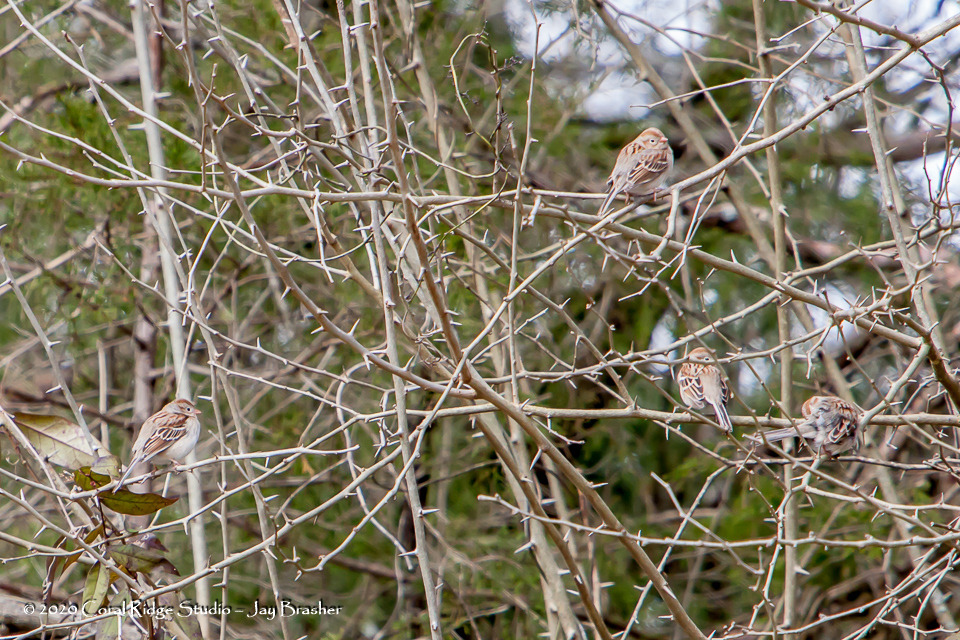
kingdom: Animalia
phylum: Chordata
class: Aves
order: Passeriformes
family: Passerellidae
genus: Spizella
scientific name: Spizella pusilla
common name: Field sparrow
